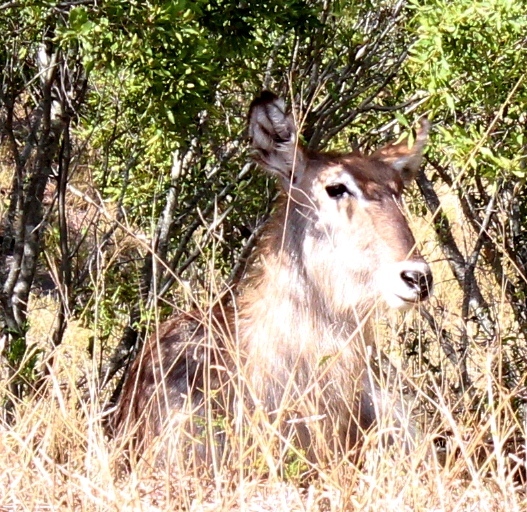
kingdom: Animalia
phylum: Chordata
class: Mammalia
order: Artiodactyla
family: Bovidae
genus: Kobus
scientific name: Kobus ellipsiprymnus
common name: Waterbuck
